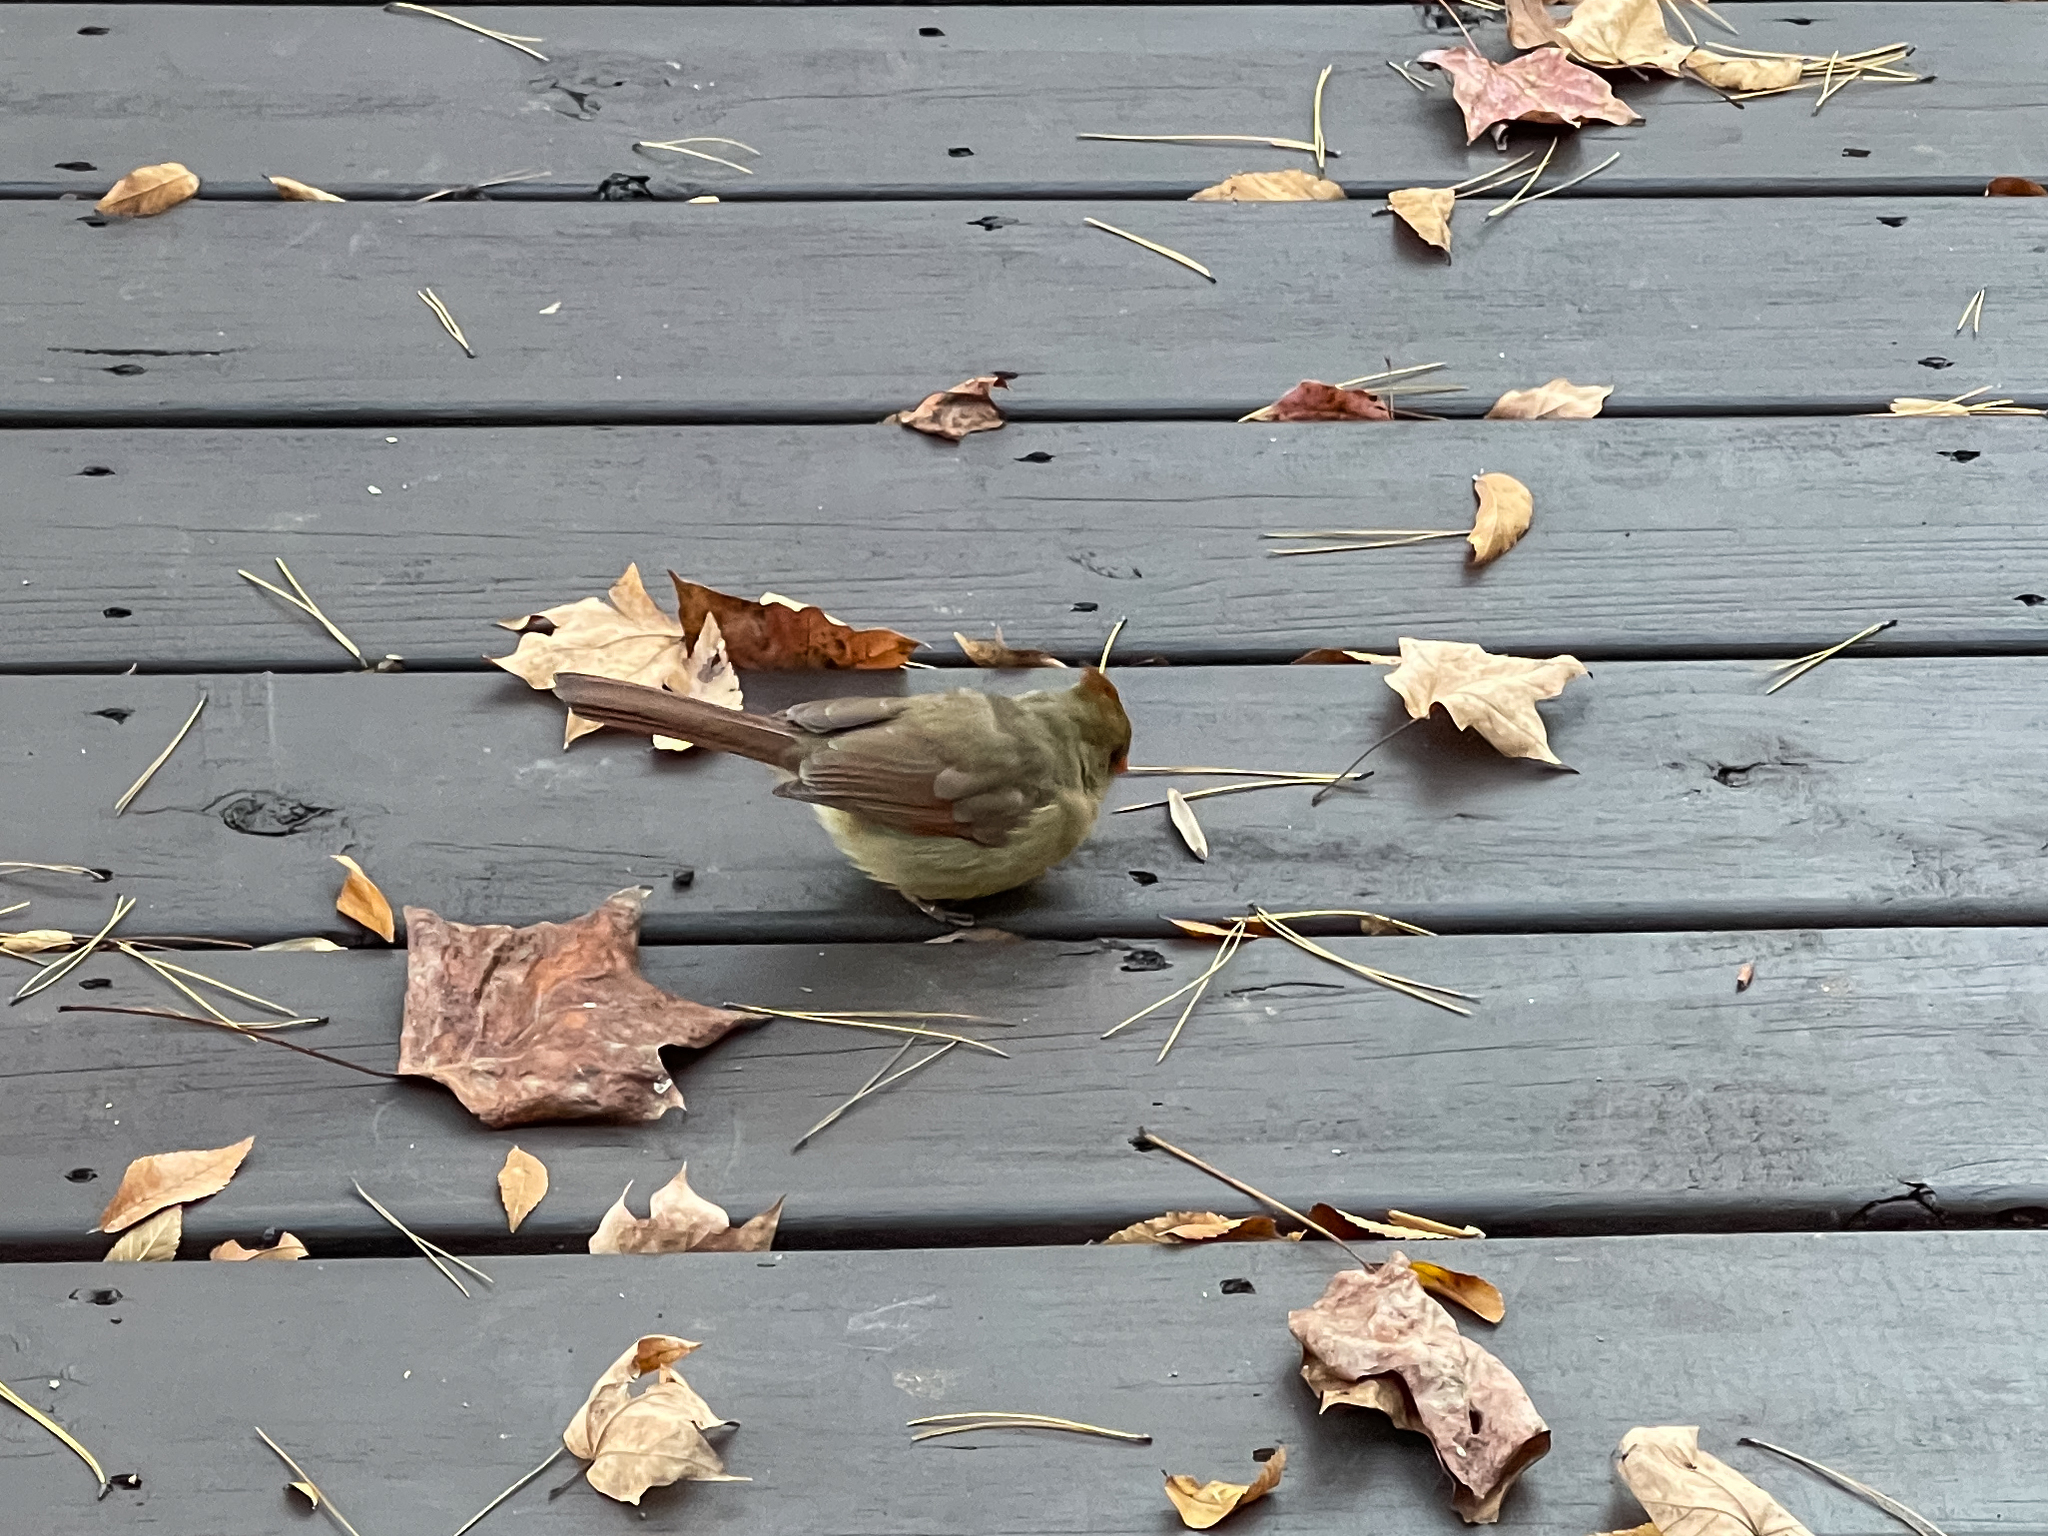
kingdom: Animalia
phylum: Chordata
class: Aves
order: Passeriformes
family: Cardinalidae
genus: Cardinalis
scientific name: Cardinalis cardinalis
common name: Northern cardinal
